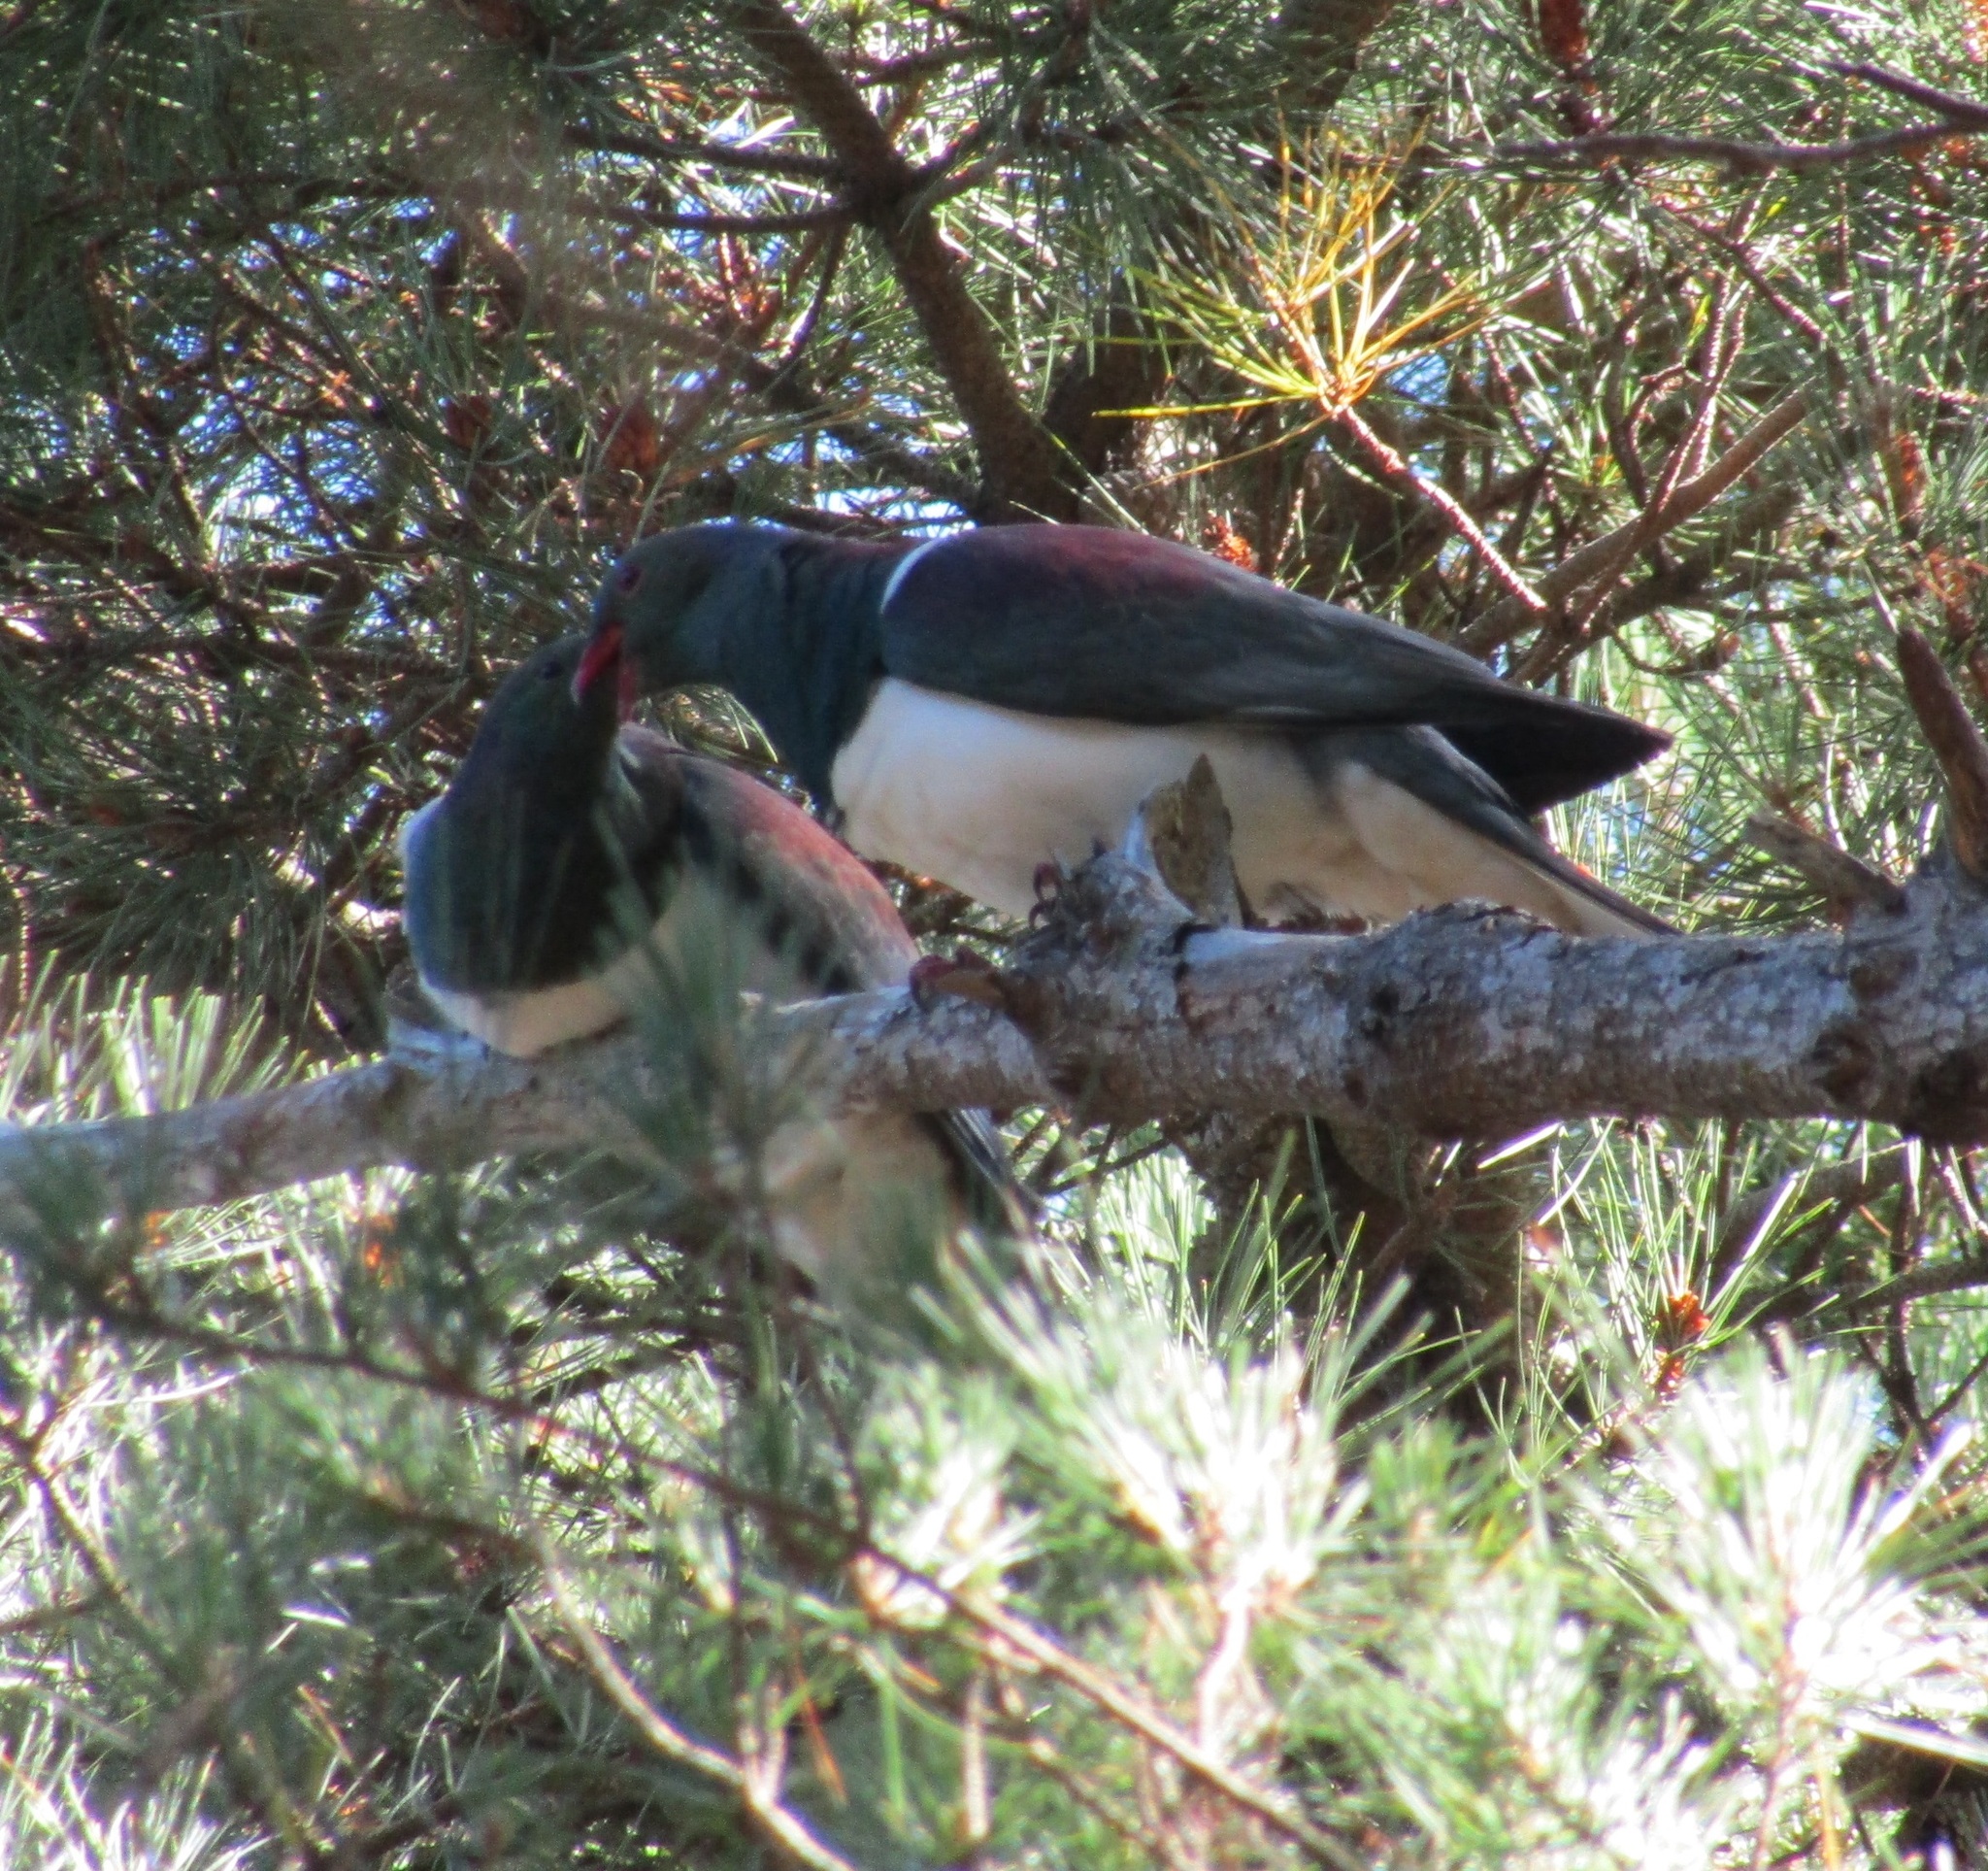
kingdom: Animalia
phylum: Chordata
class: Aves
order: Columbiformes
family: Columbidae
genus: Hemiphaga
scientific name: Hemiphaga novaeseelandiae
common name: New zealand pigeon
